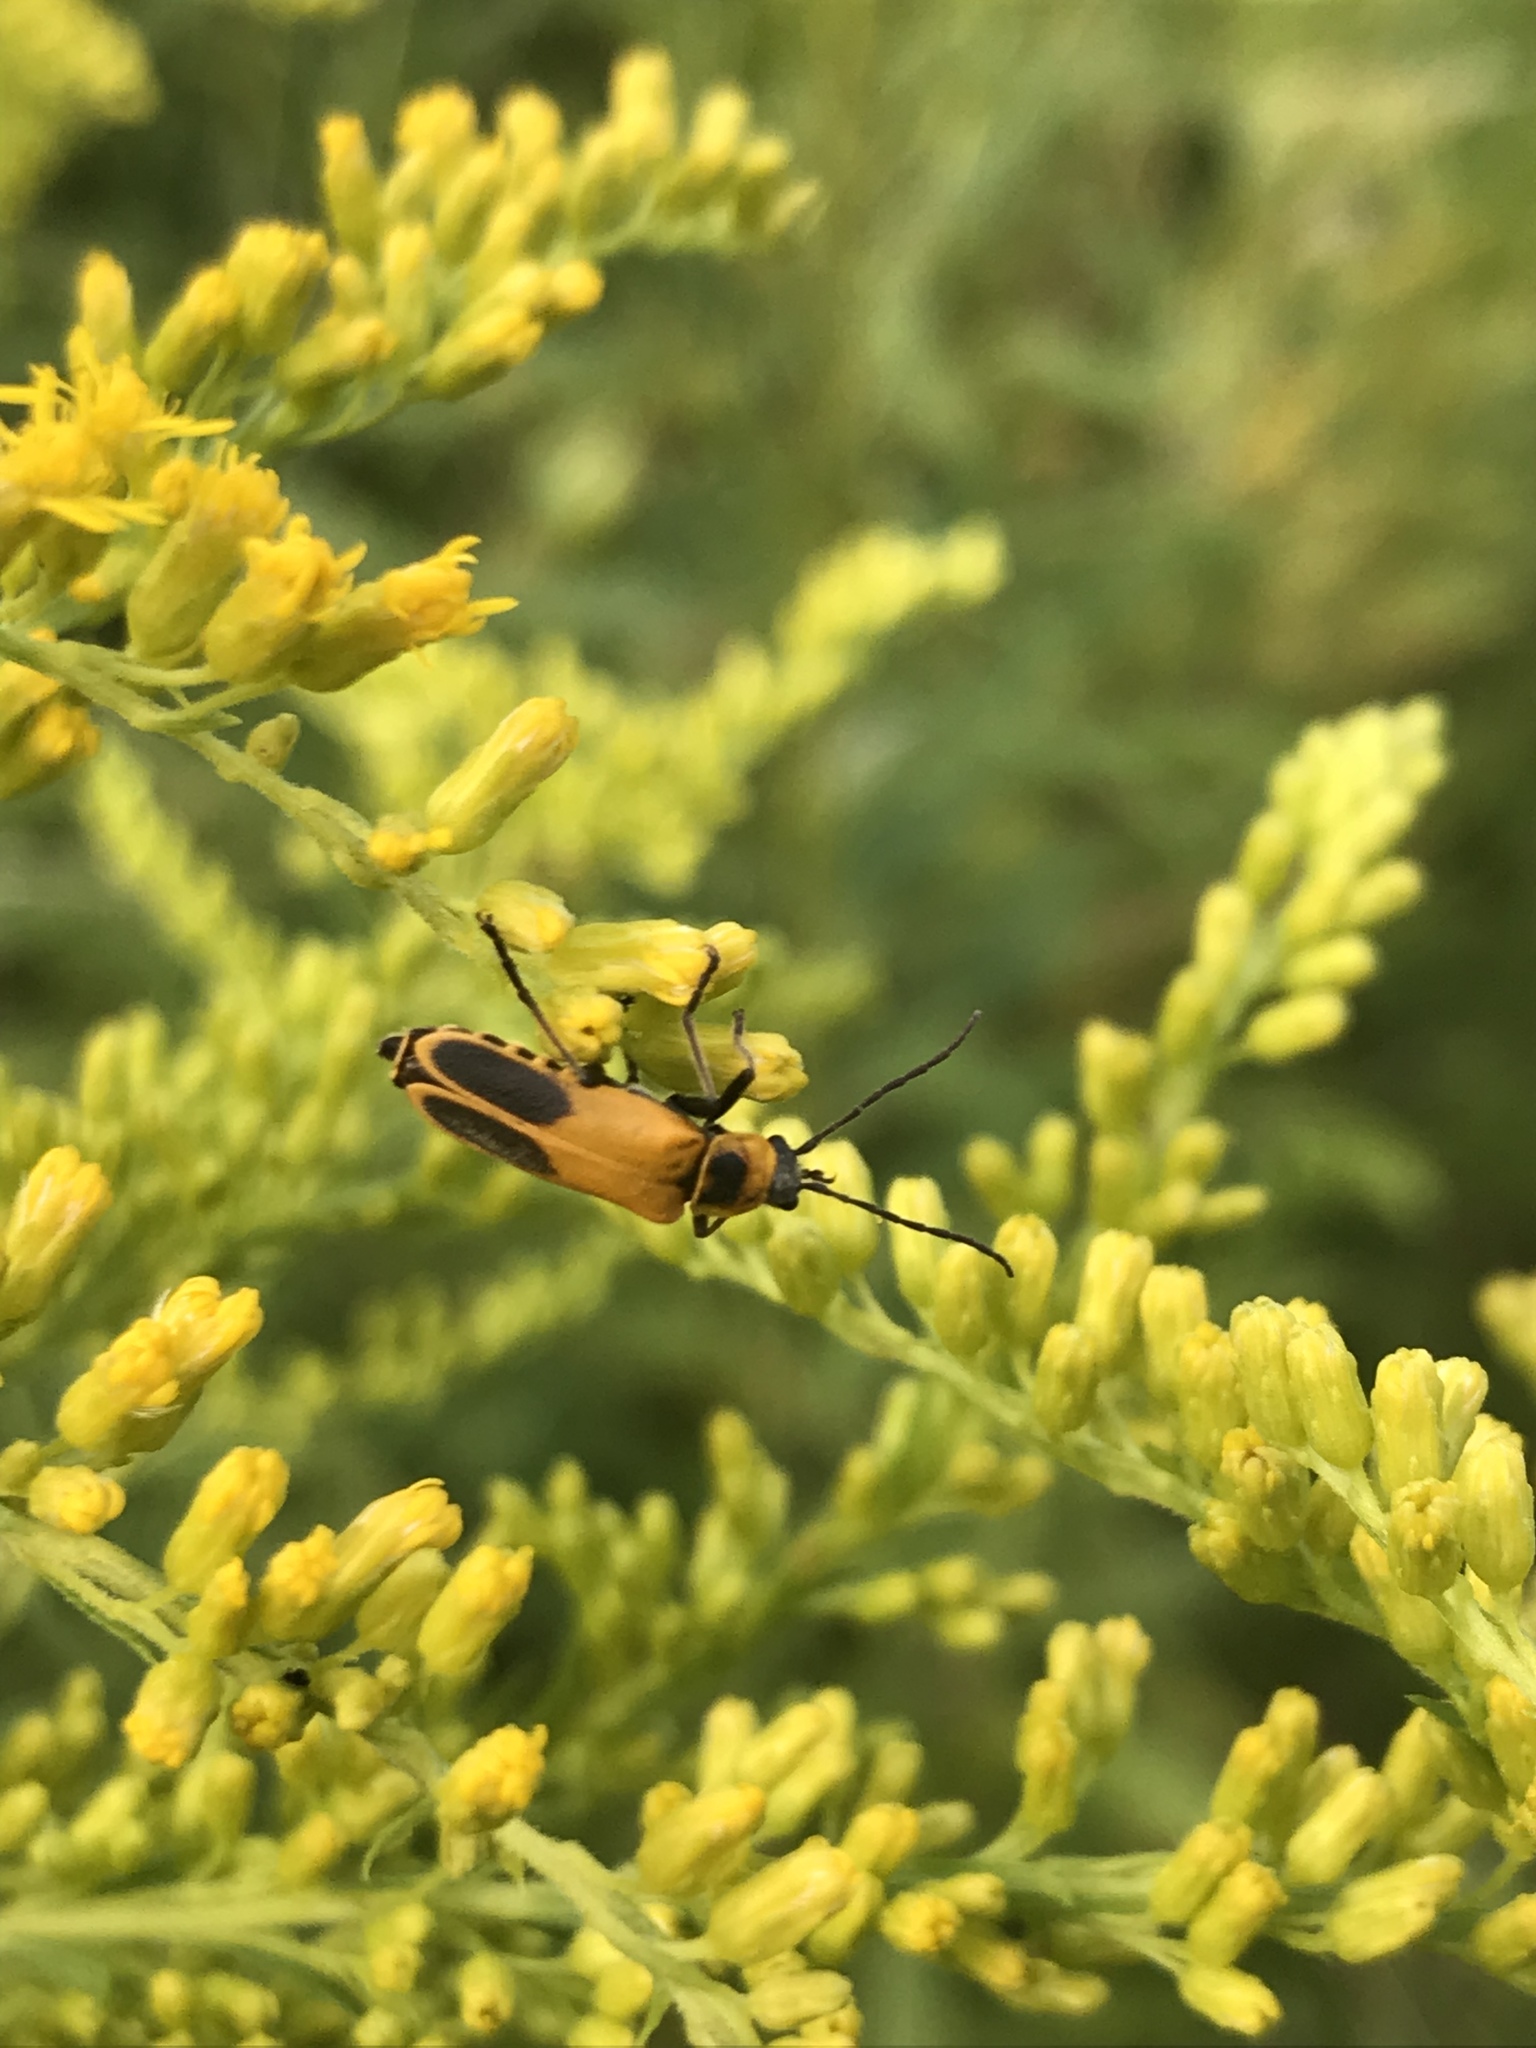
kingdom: Animalia
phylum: Arthropoda
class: Insecta
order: Coleoptera
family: Cantharidae
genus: Chauliognathus
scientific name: Chauliognathus pensylvanicus
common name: Goldenrod soldier beetle
